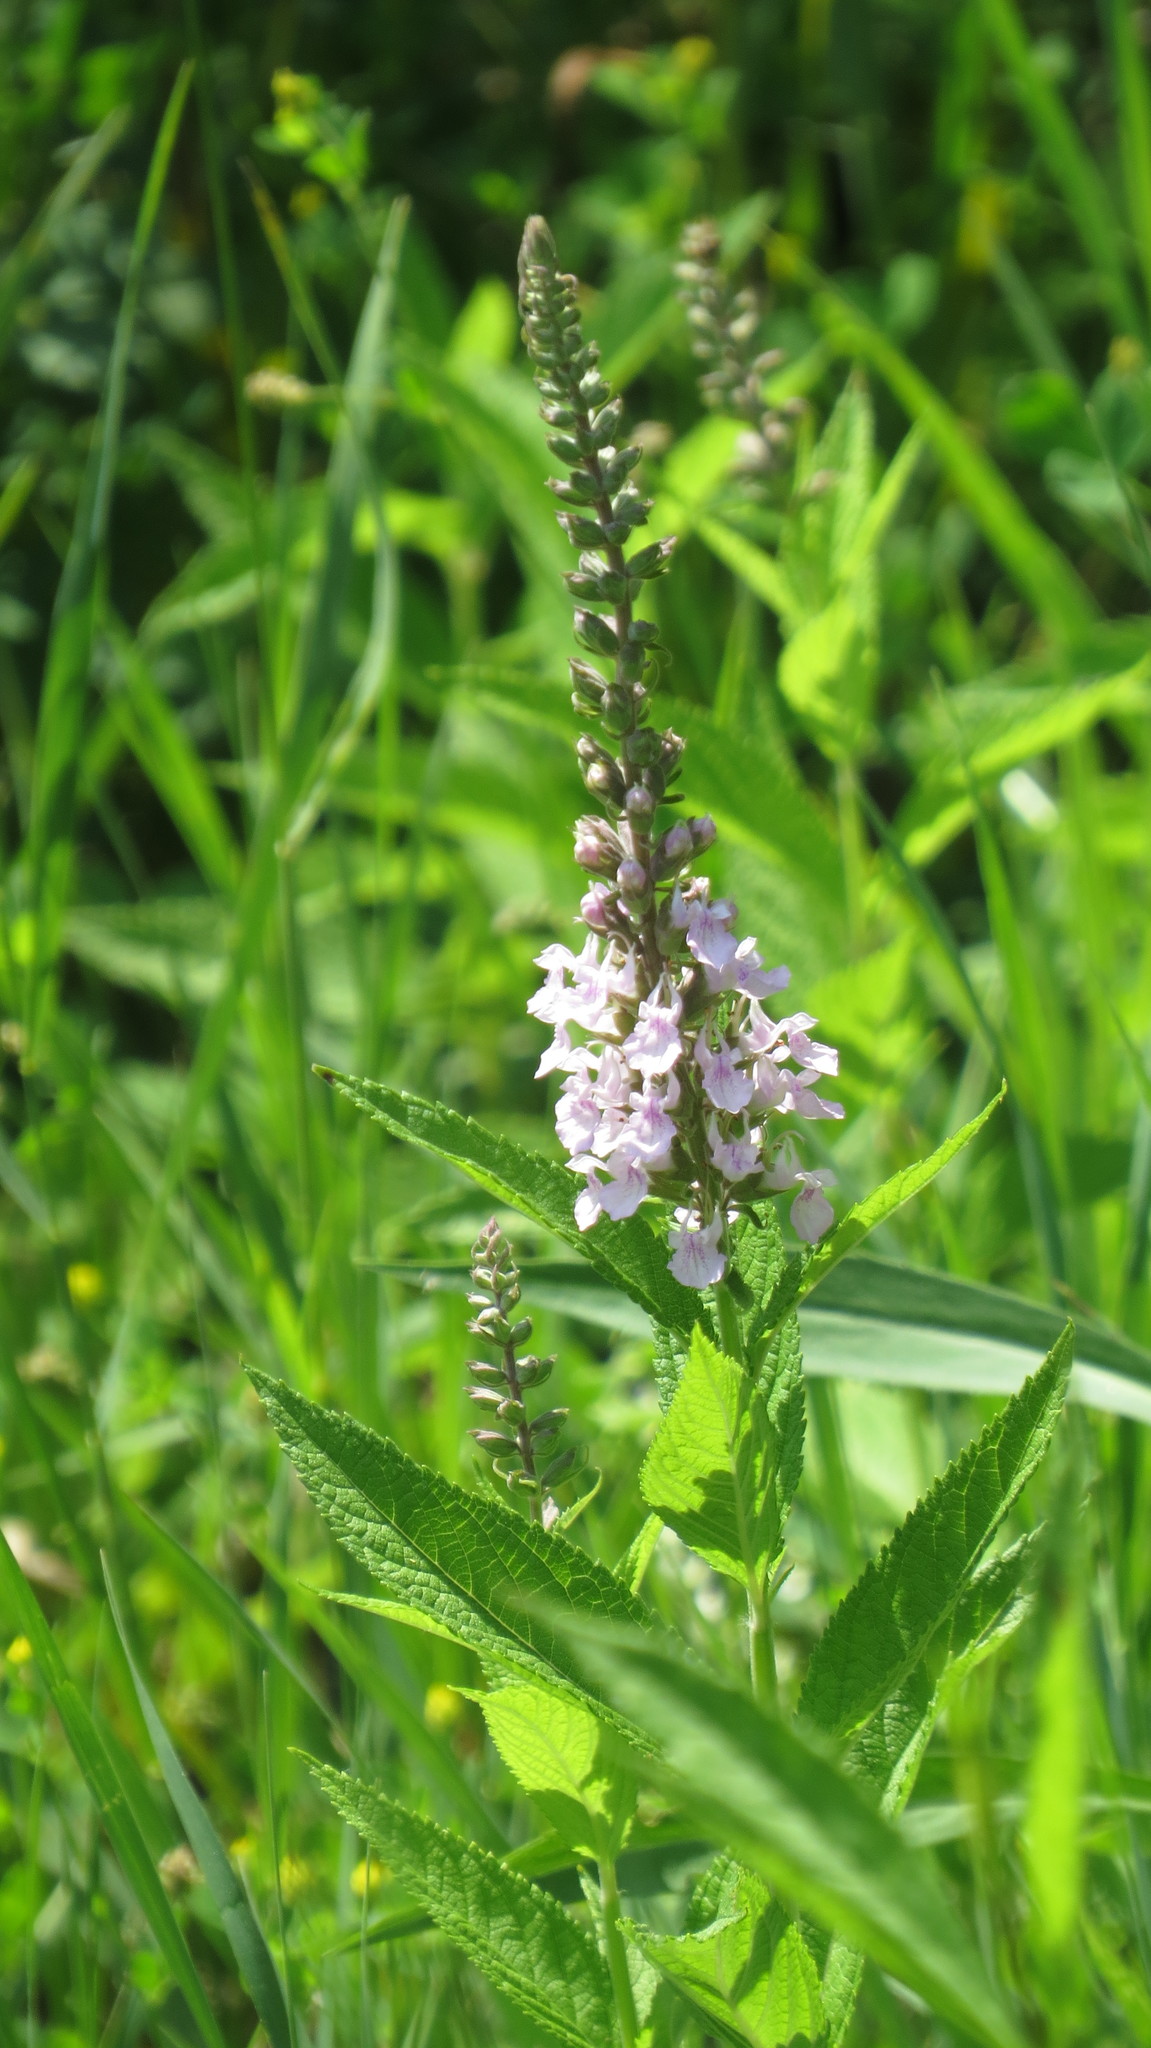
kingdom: Plantae
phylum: Tracheophyta
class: Magnoliopsida
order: Lamiales
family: Lamiaceae
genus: Teucrium
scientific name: Teucrium canadense
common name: American germander
